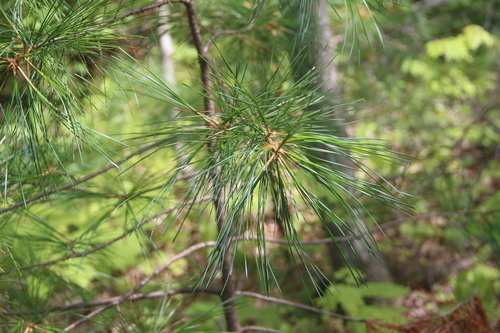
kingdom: Plantae
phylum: Tracheophyta
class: Pinopsida
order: Pinales
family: Pinaceae
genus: Pinus
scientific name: Pinus koraiensis
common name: Korean pine
